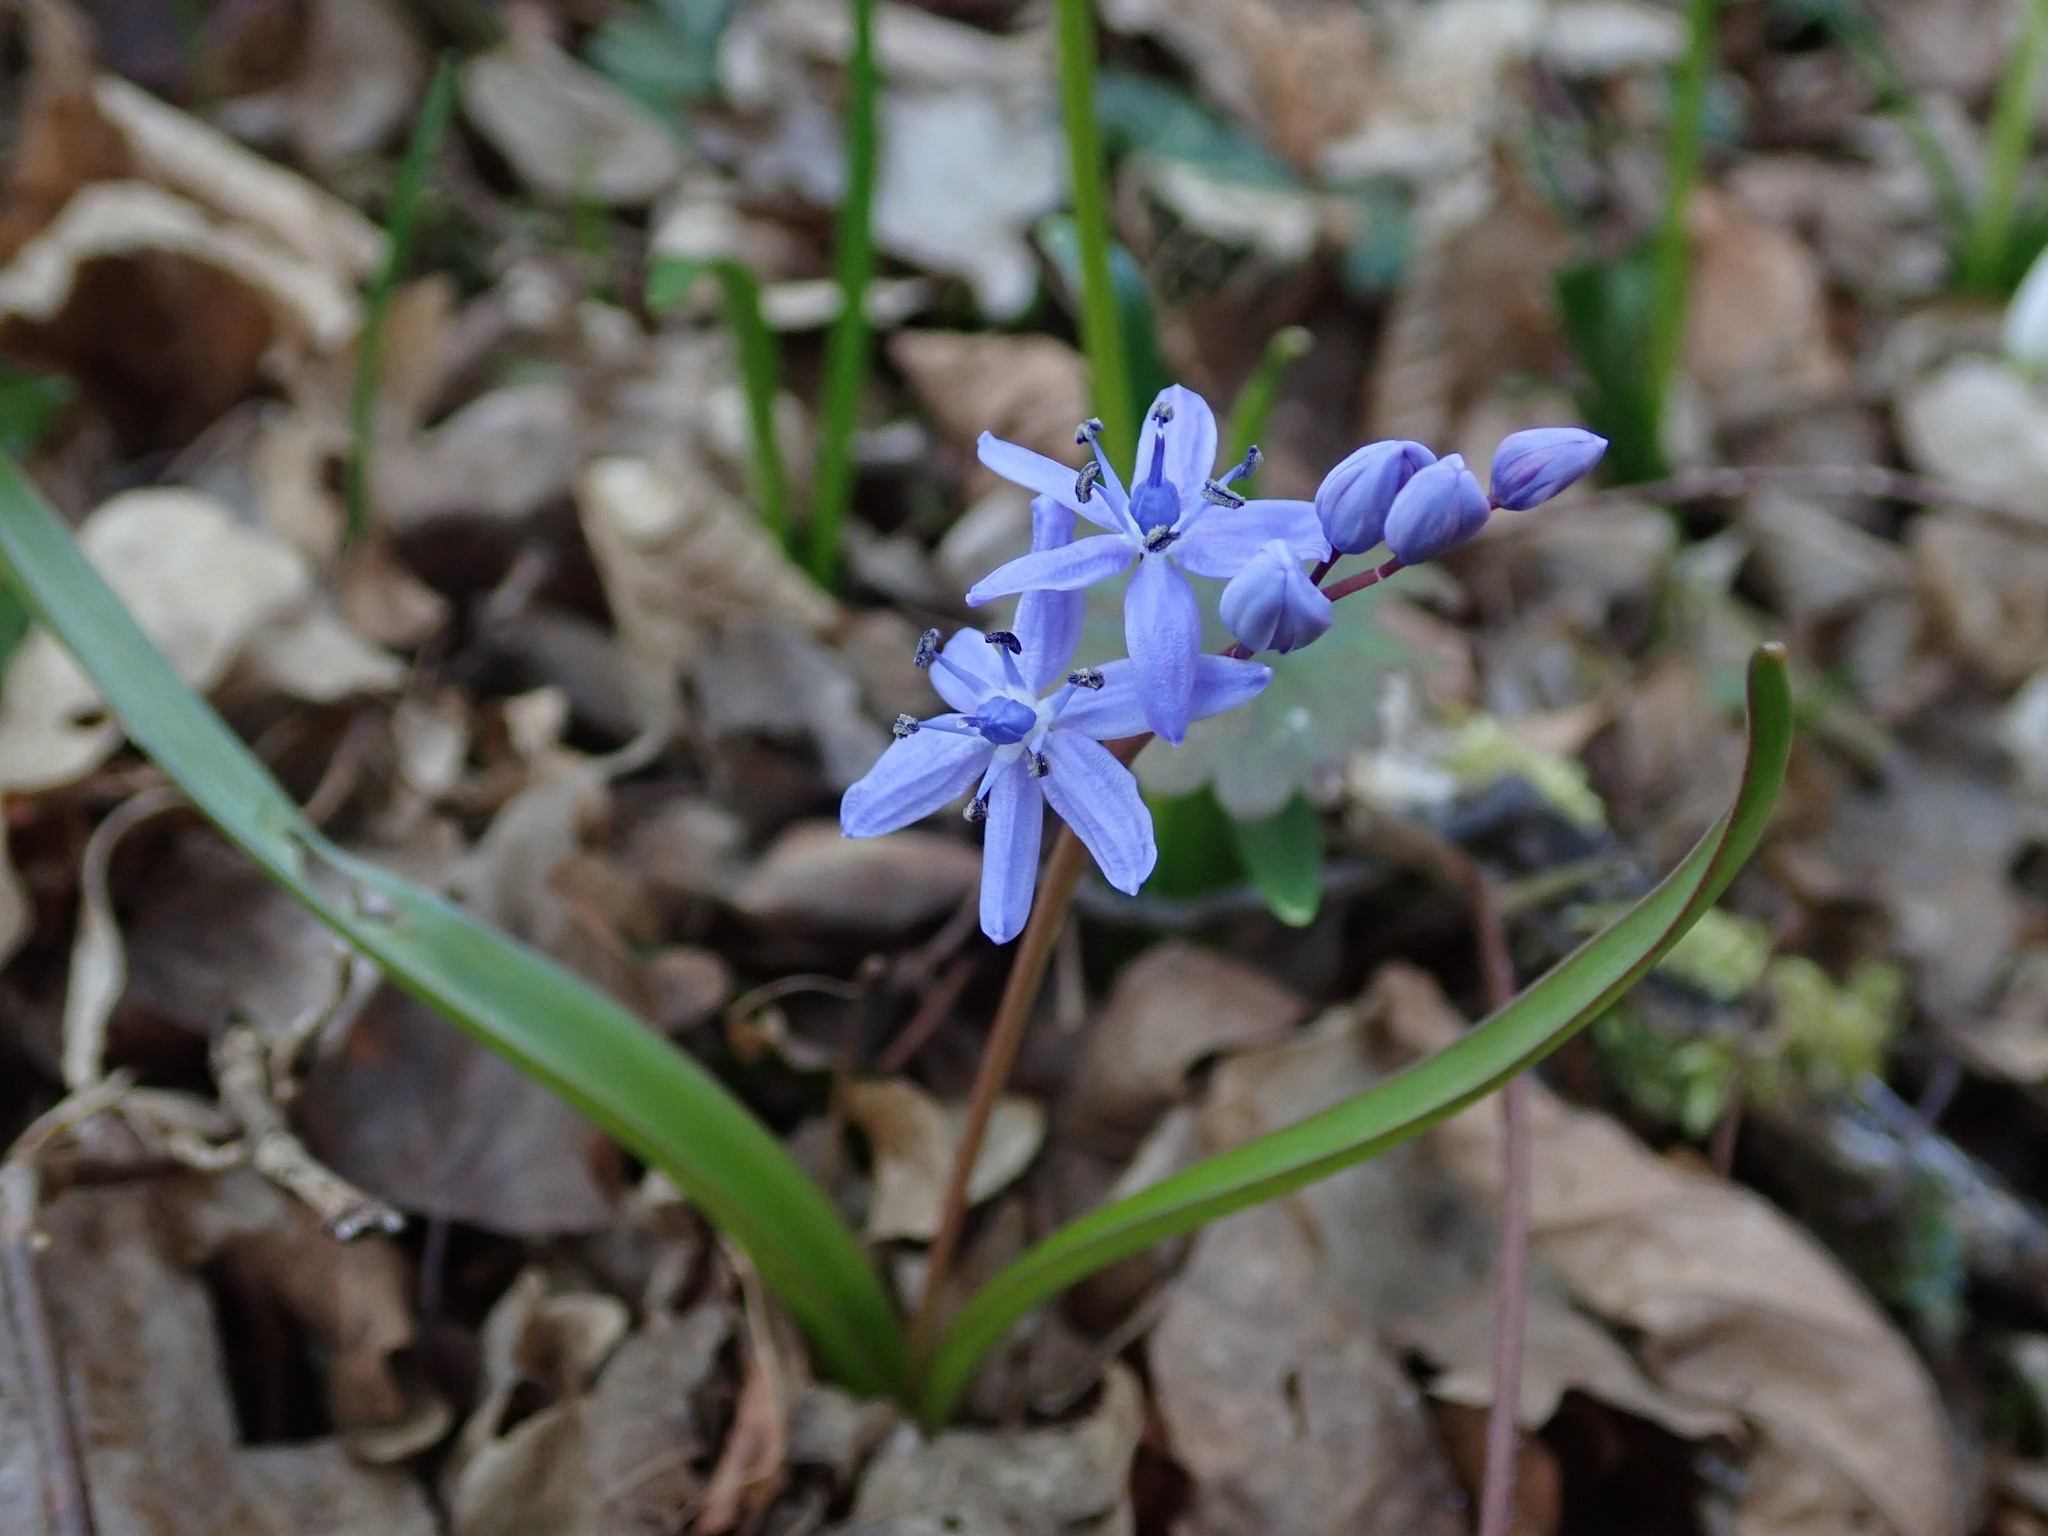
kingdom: Plantae
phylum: Tracheophyta
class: Liliopsida
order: Asparagales
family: Asparagaceae
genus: Scilla
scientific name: Scilla bifolia
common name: Alpine squill
